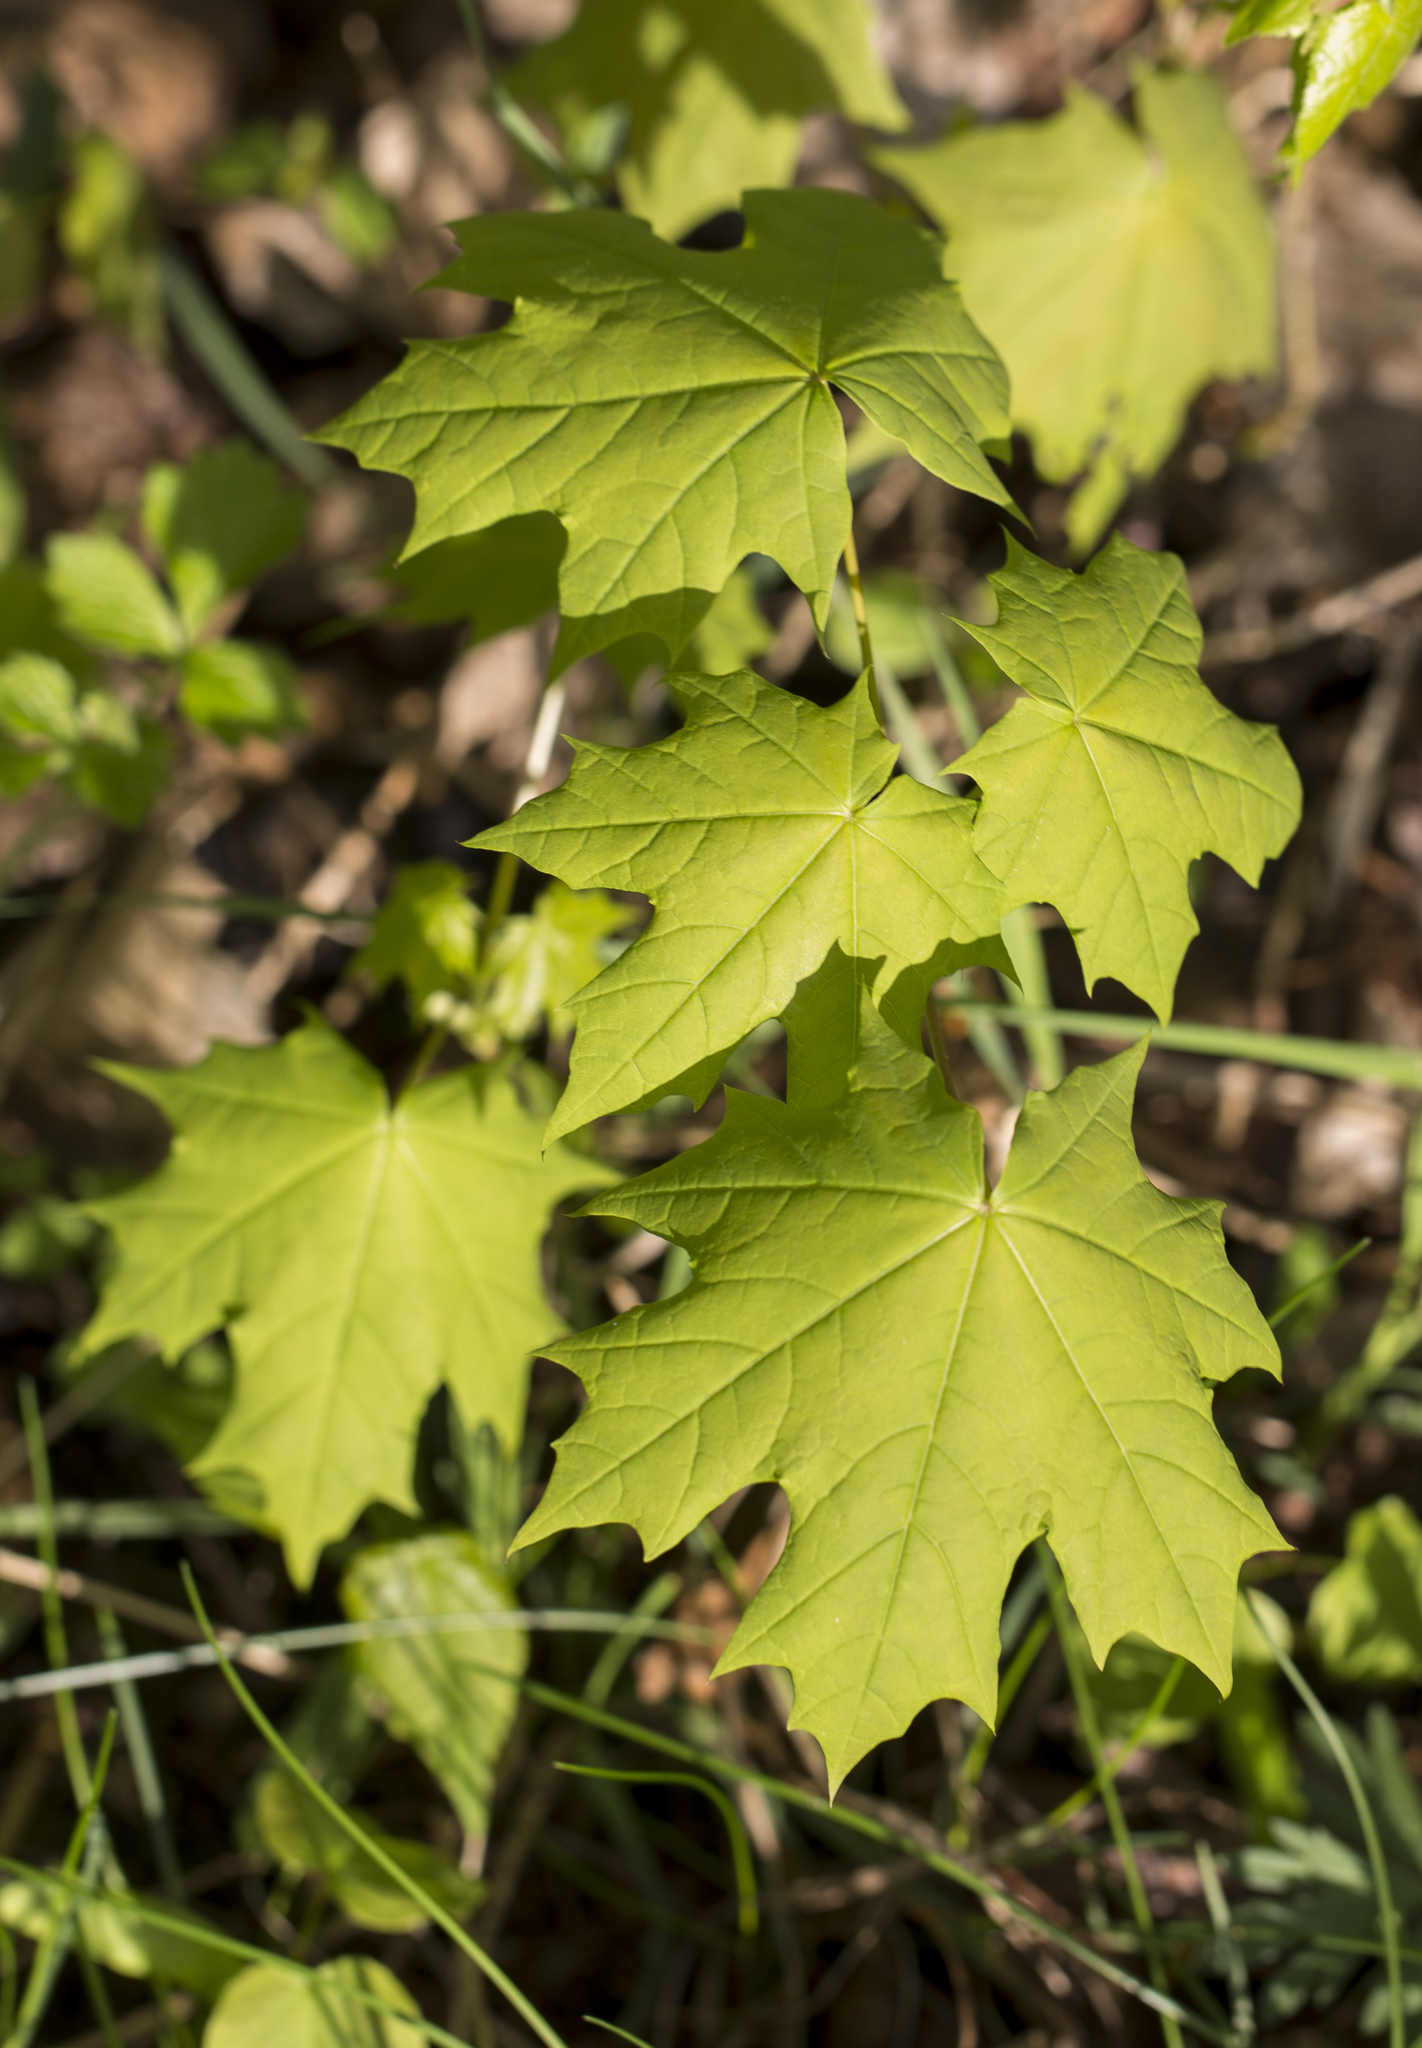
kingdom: Plantae
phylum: Tracheophyta
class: Magnoliopsida
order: Sapindales
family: Sapindaceae
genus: Acer
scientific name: Acer platanoides
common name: Norway maple
